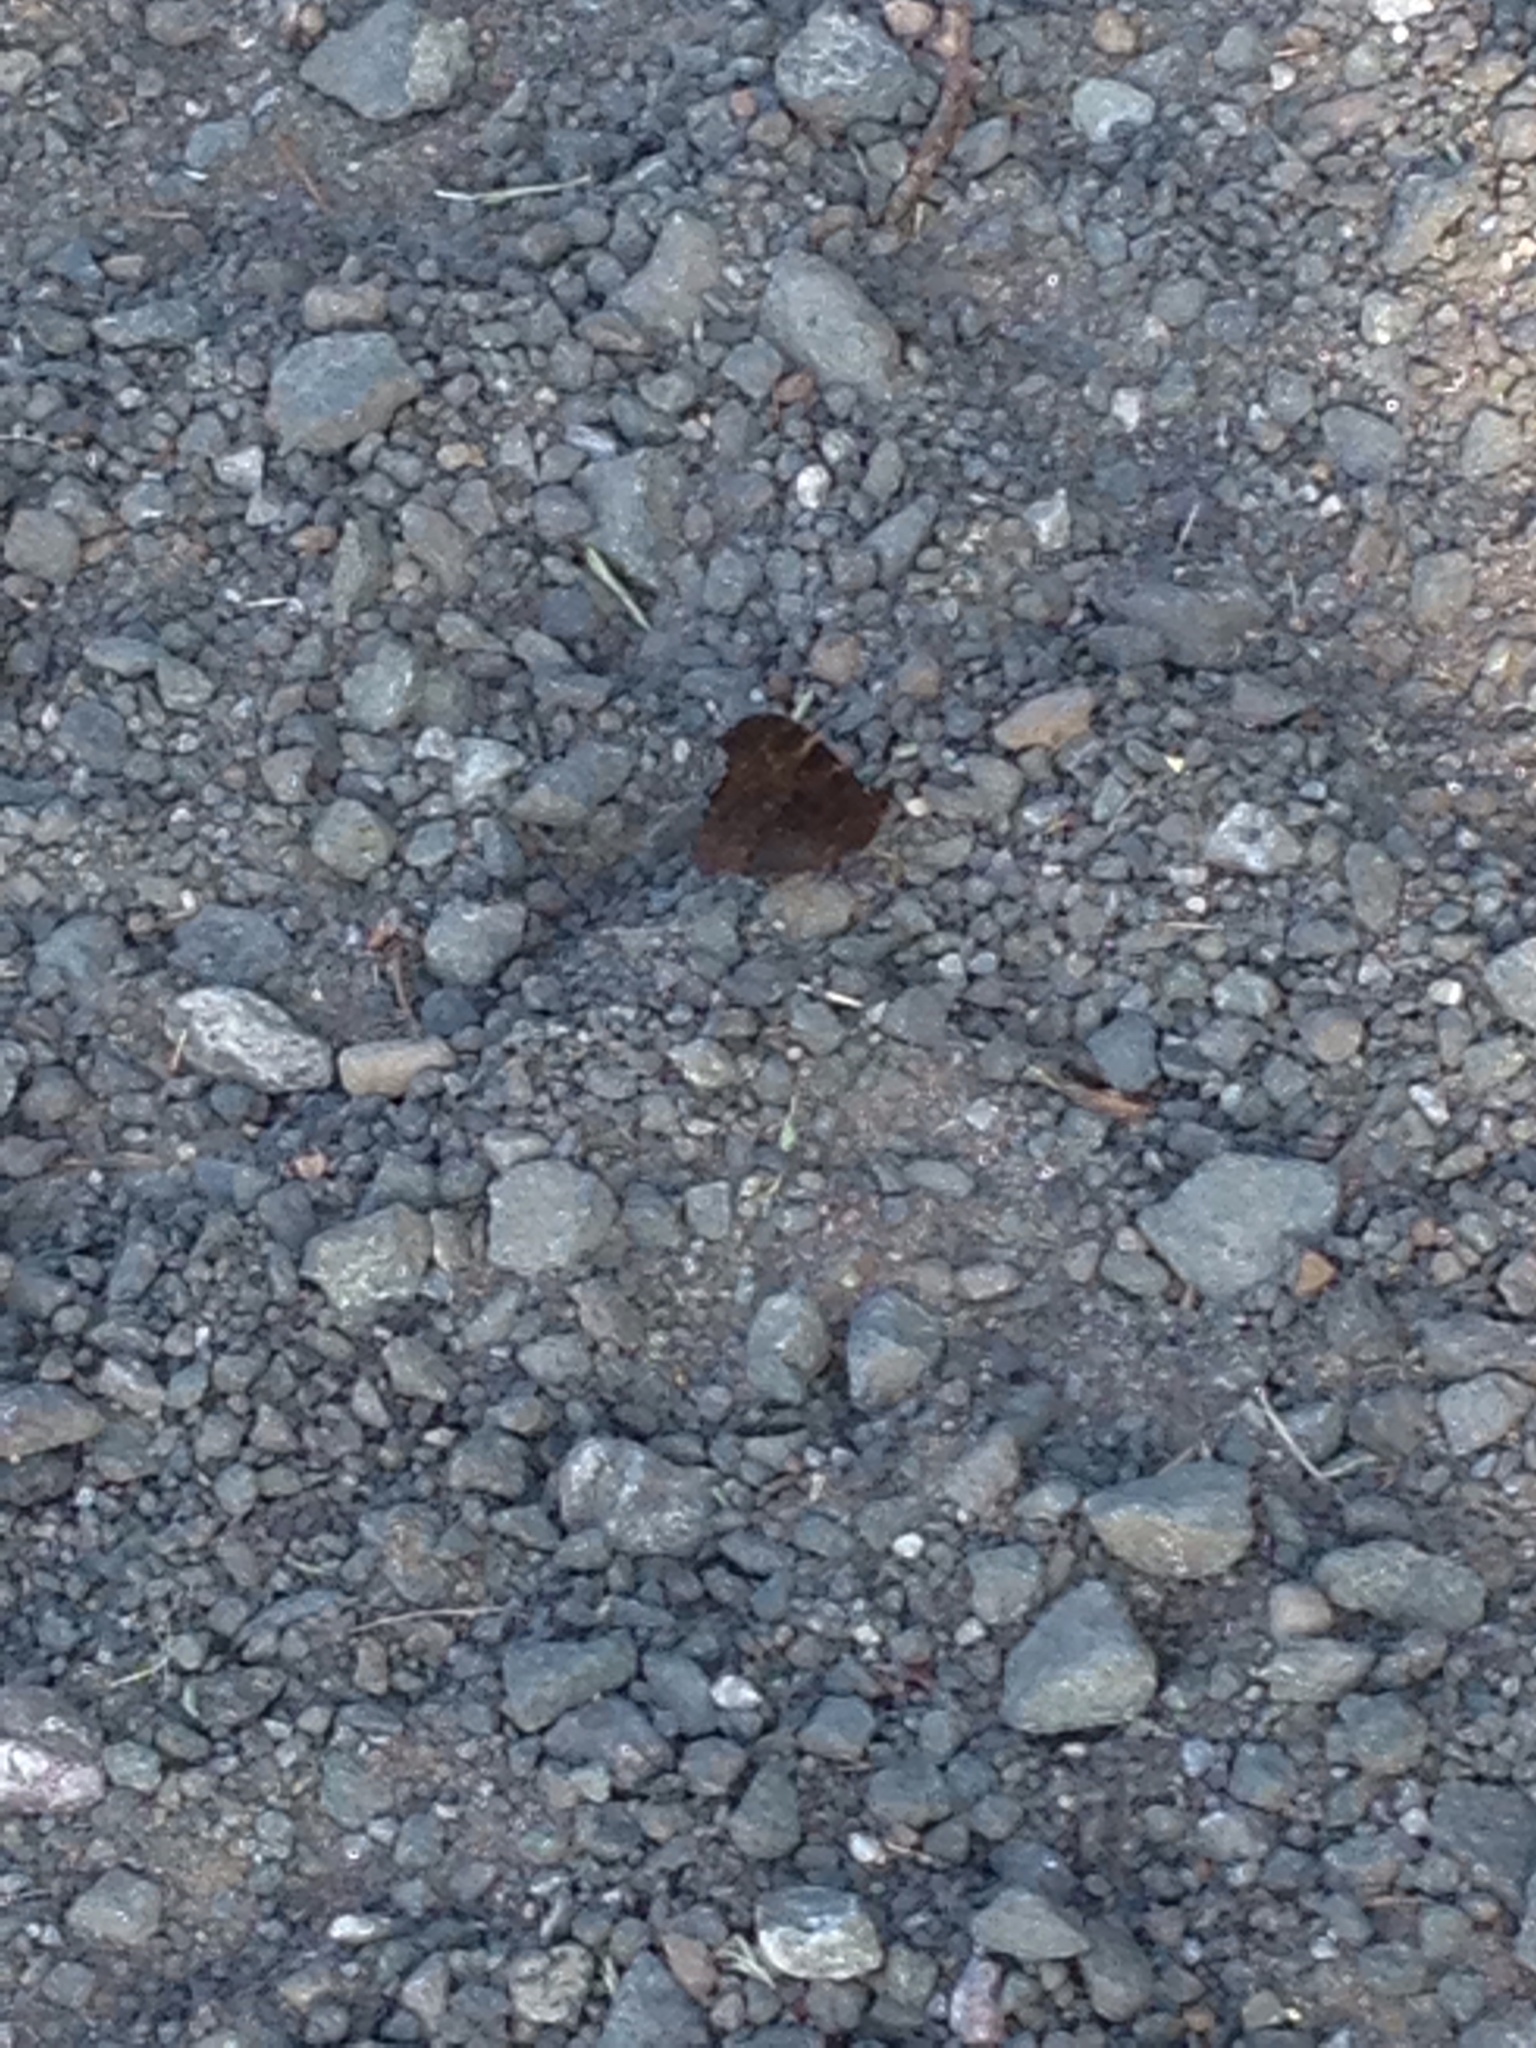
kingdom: Animalia
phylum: Arthropoda
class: Insecta
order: Lepidoptera
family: Nymphalidae
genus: Aglais
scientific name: Aglais io
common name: Peacock
